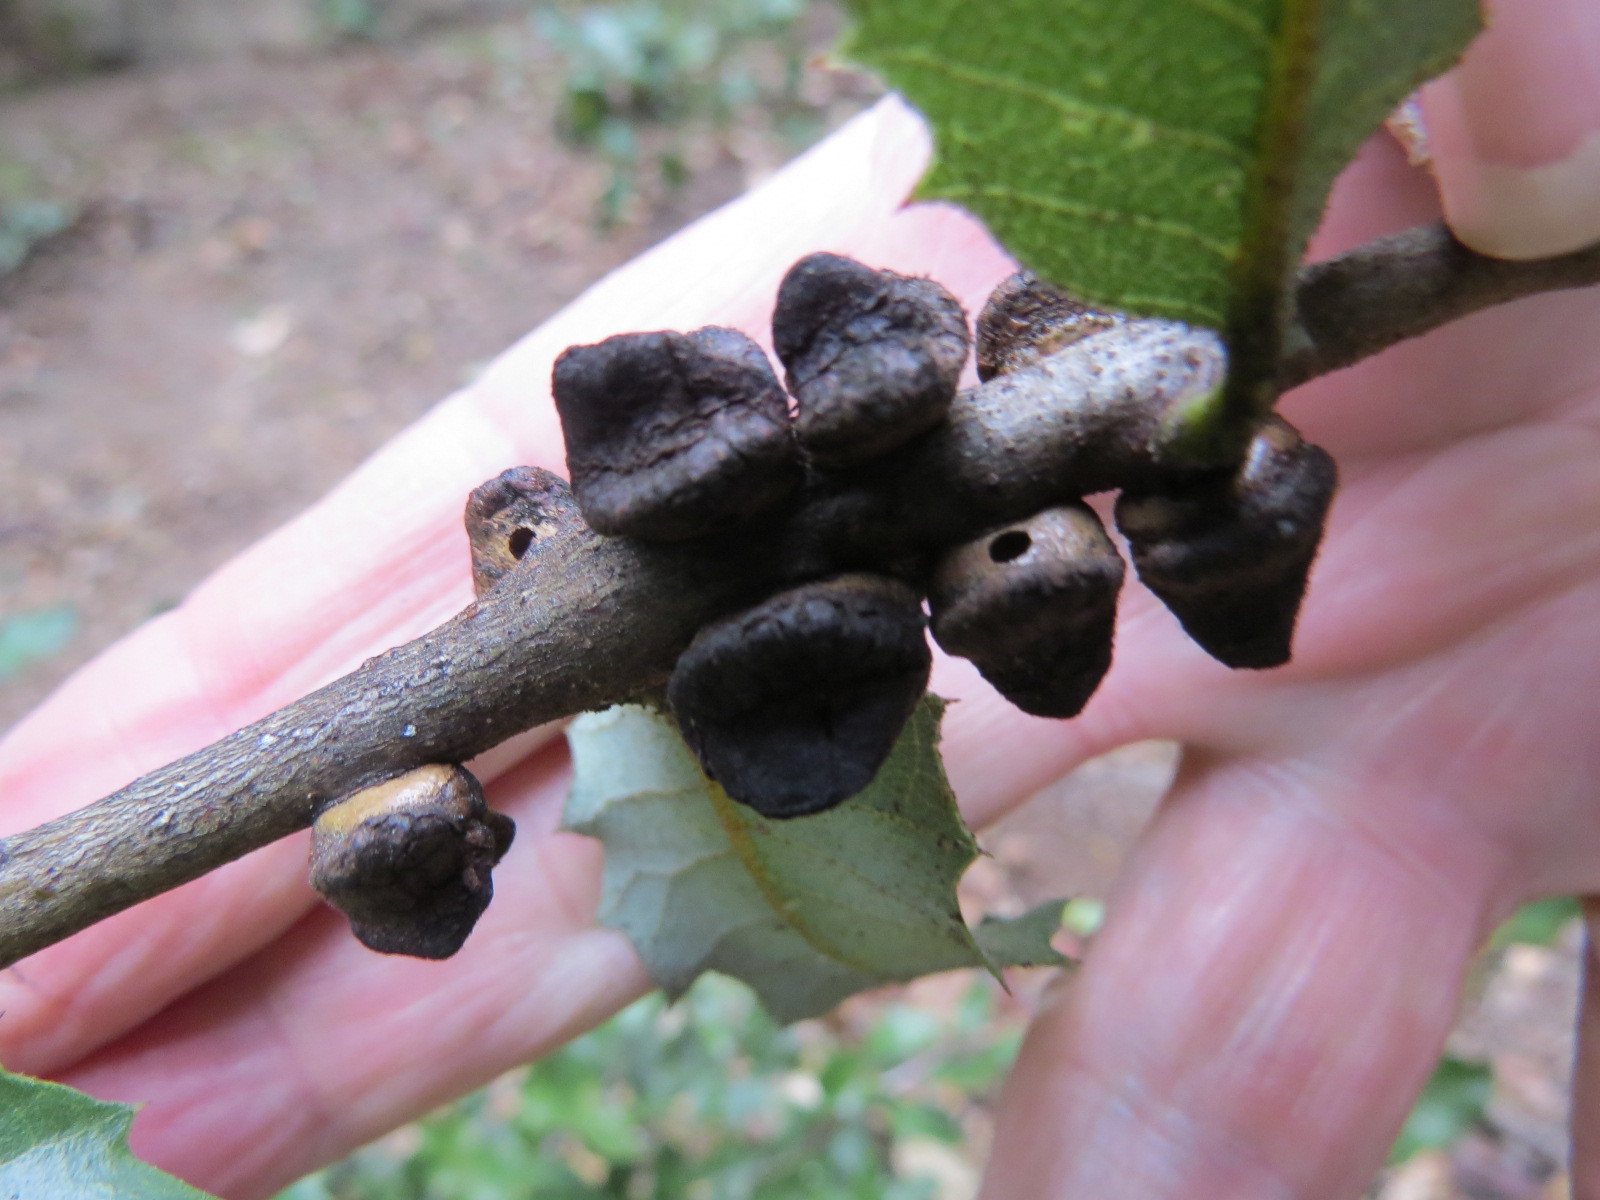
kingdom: Animalia
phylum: Arthropoda
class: Insecta
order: Hymenoptera
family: Cynipidae
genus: Disholandricus
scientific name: Disholandricus
